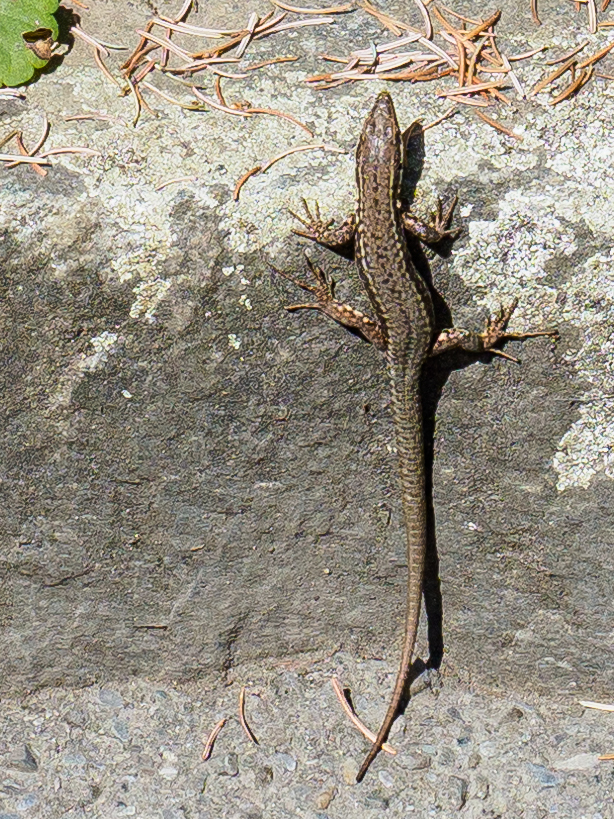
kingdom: Animalia
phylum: Chordata
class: Squamata
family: Lacertidae
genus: Podarcis
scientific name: Podarcis muralis
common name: Common wall lizard
